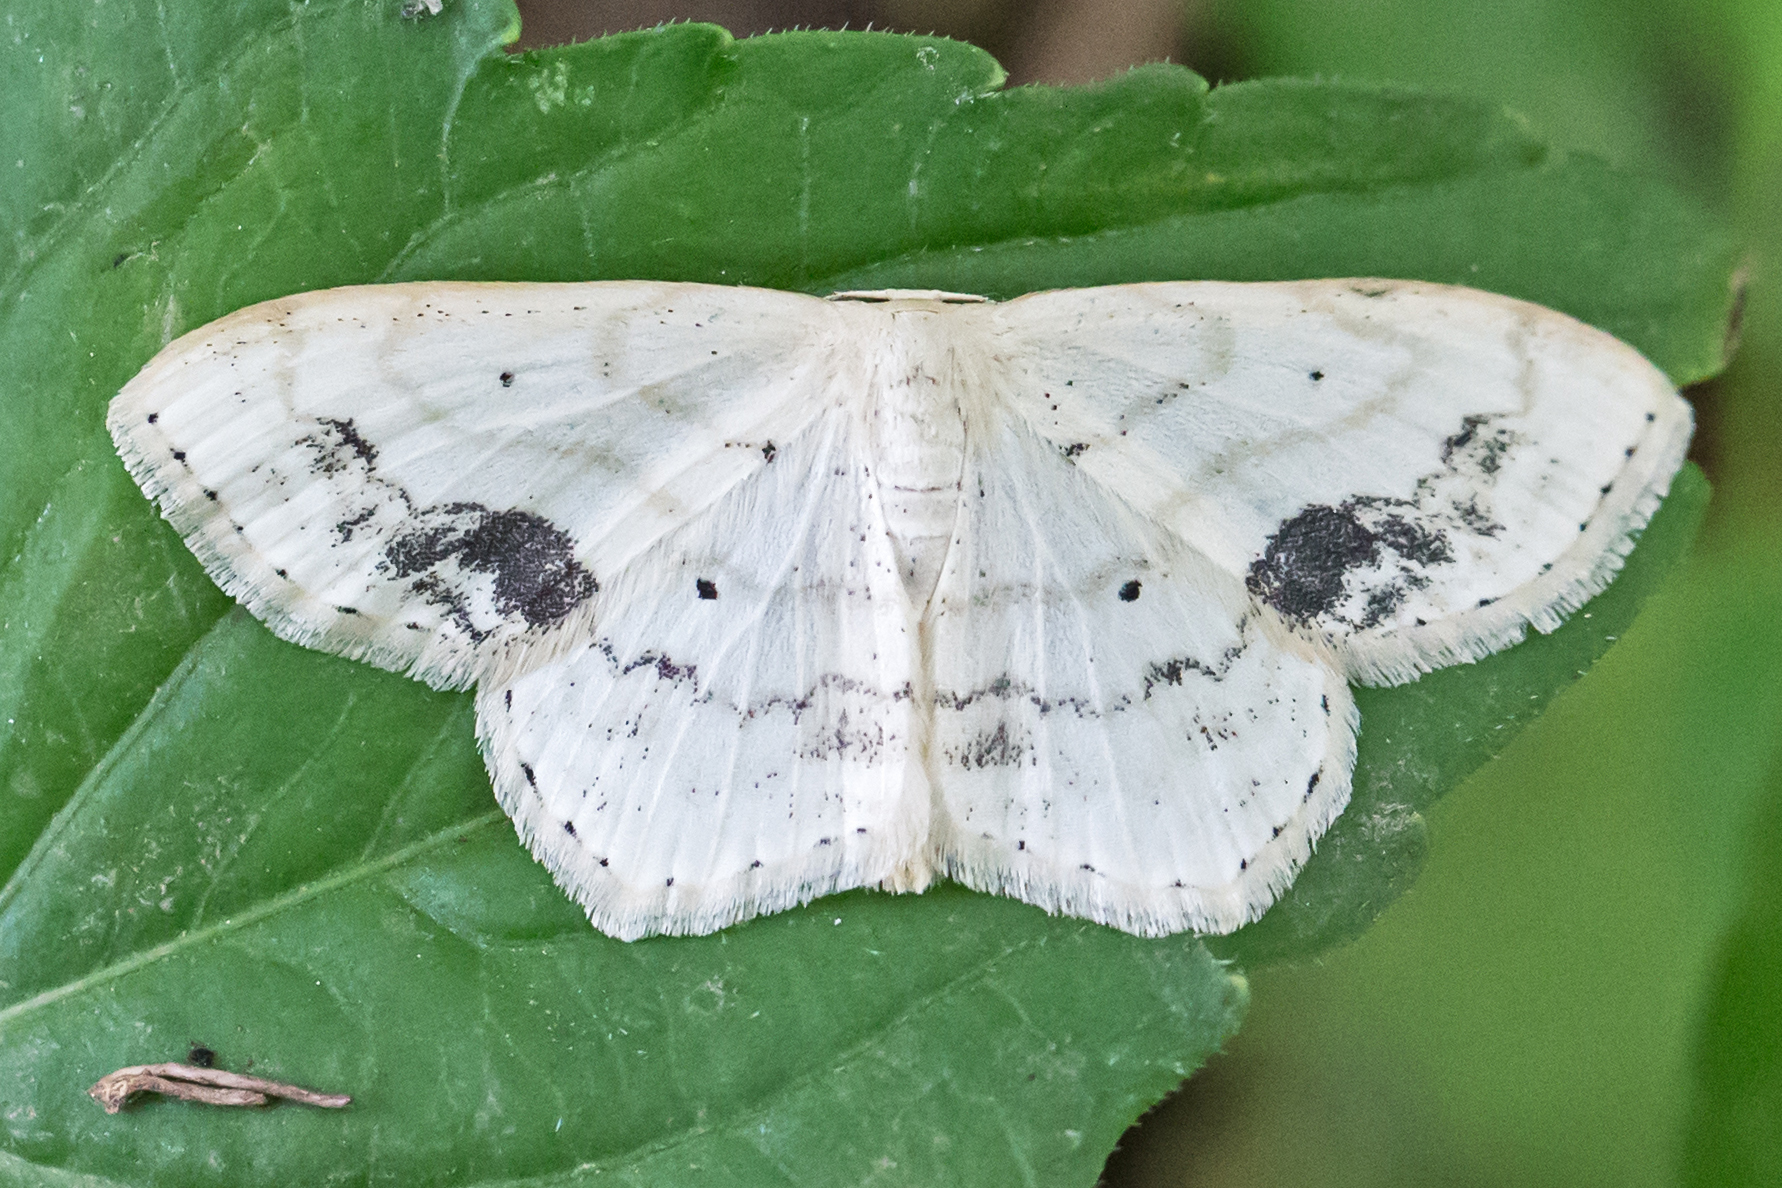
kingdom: Animalia
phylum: Arthropoda
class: Insecta
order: Lepidoptera
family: Geometridae
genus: Scopula
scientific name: Scopula limboundata
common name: Large lace border
